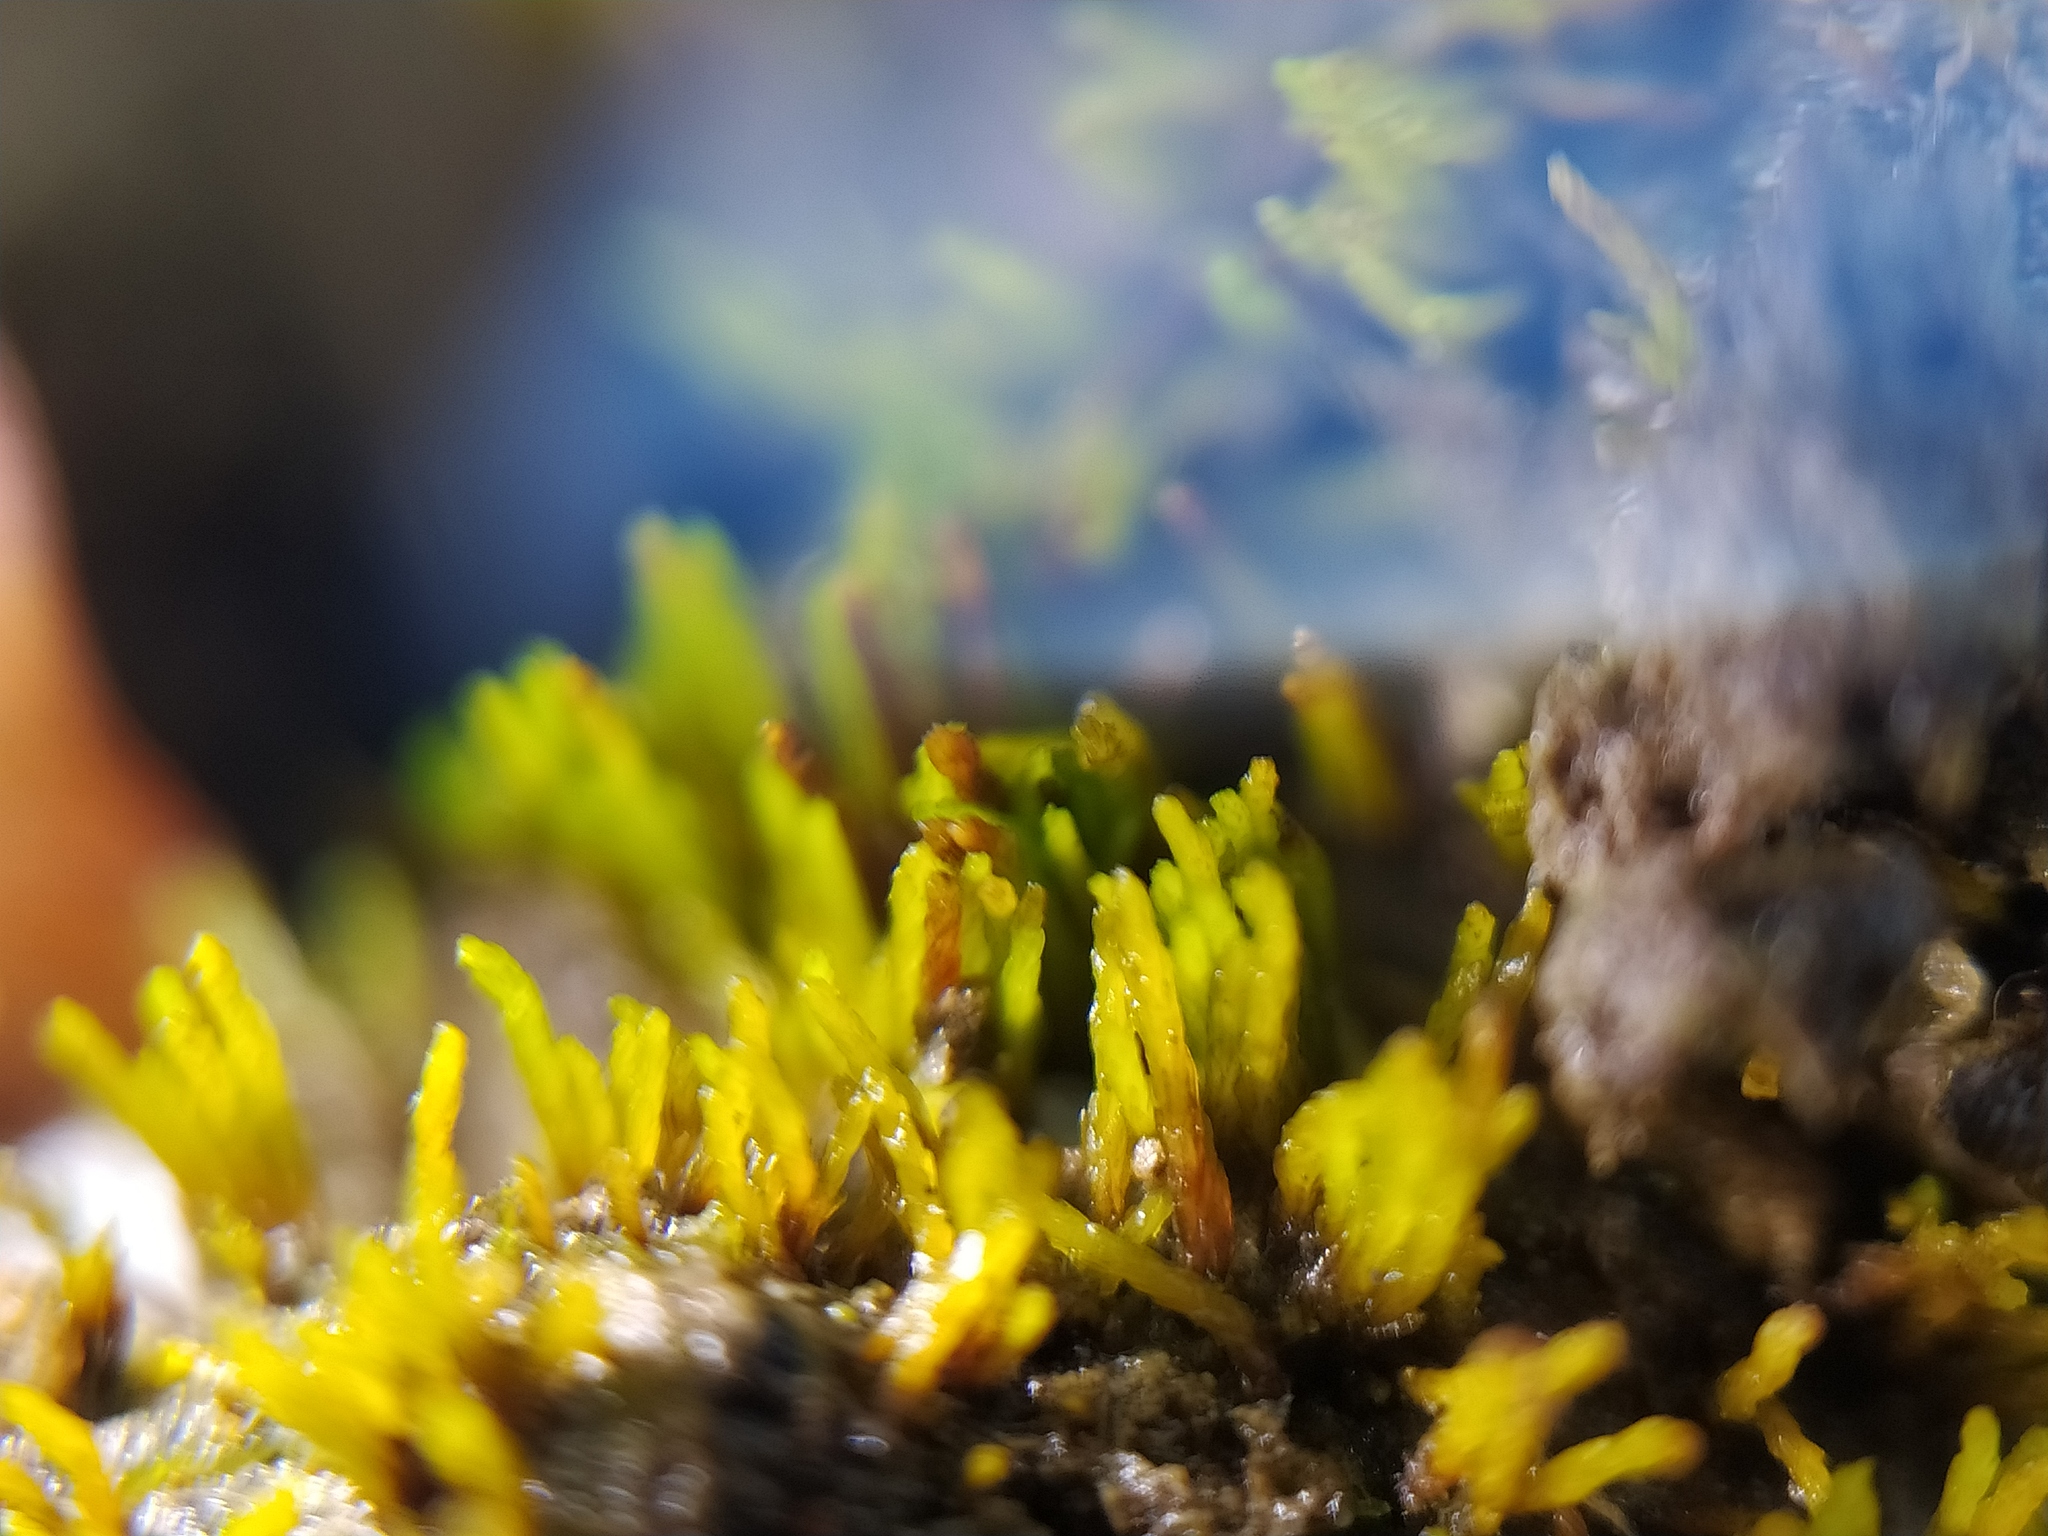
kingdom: Plantae
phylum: Bryophyta
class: Bryopsida
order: Dicranales
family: Ditrichaceae
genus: Ditrichum
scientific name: Ditrichum plumbicola
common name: Lead-moss
